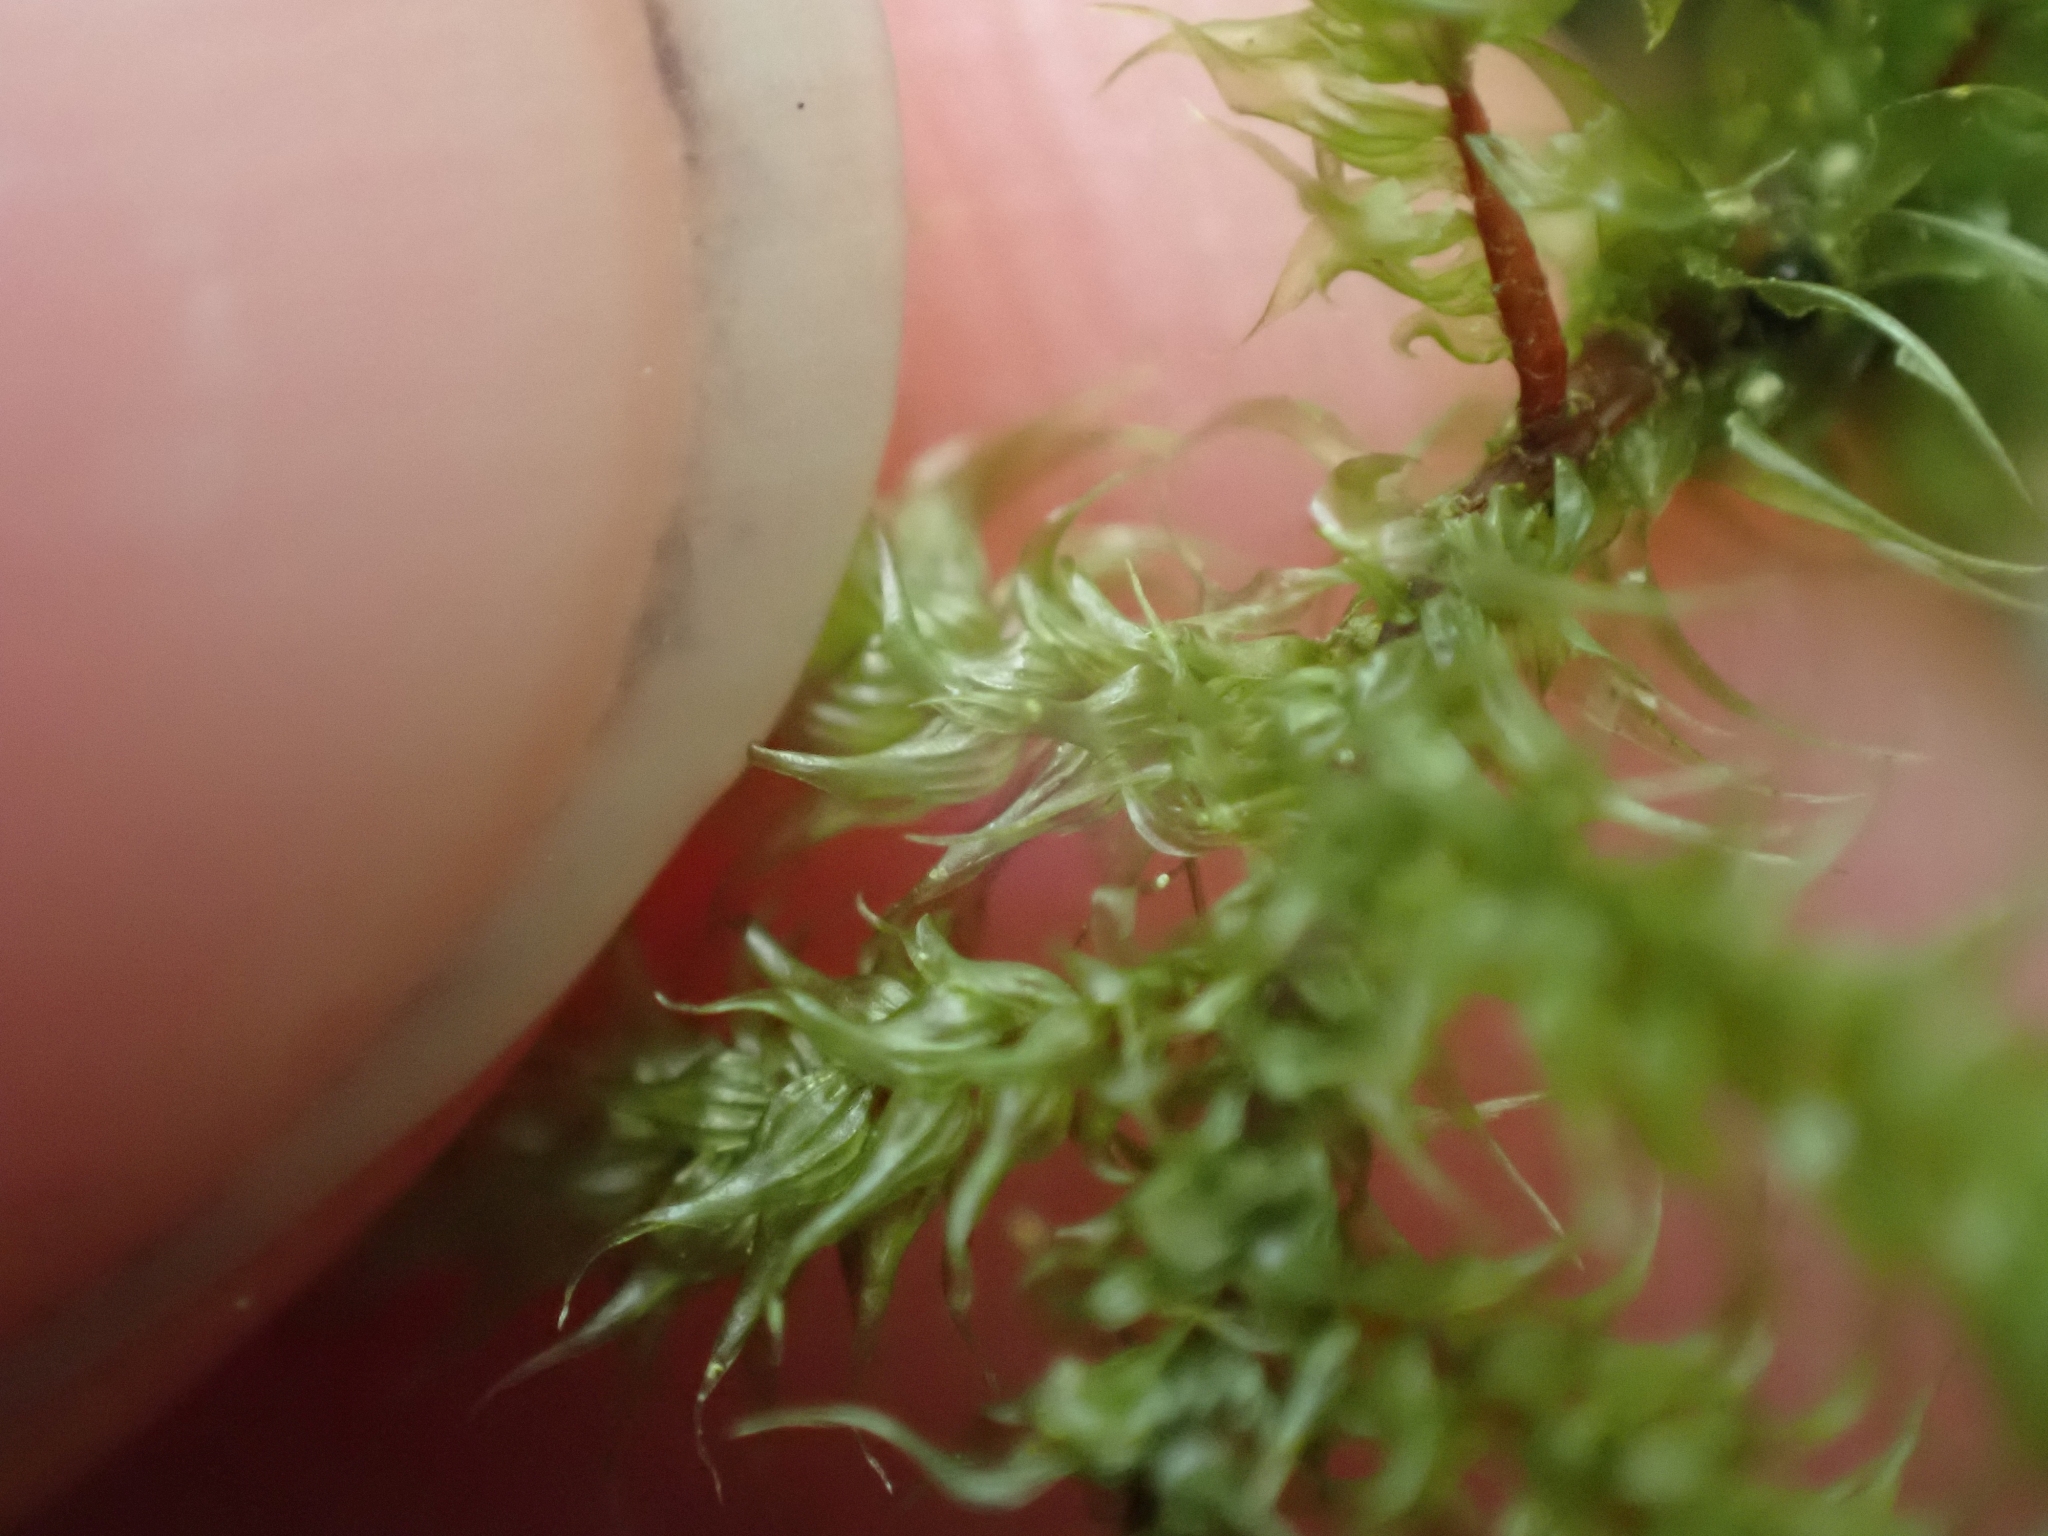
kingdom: Plantae
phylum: Bryophyta
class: Bryopsida
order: Hypnales
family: Hylocomiaceae
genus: Rhytidiadelphus
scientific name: Rhytidiadelphus loreus
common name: Lanky moss
